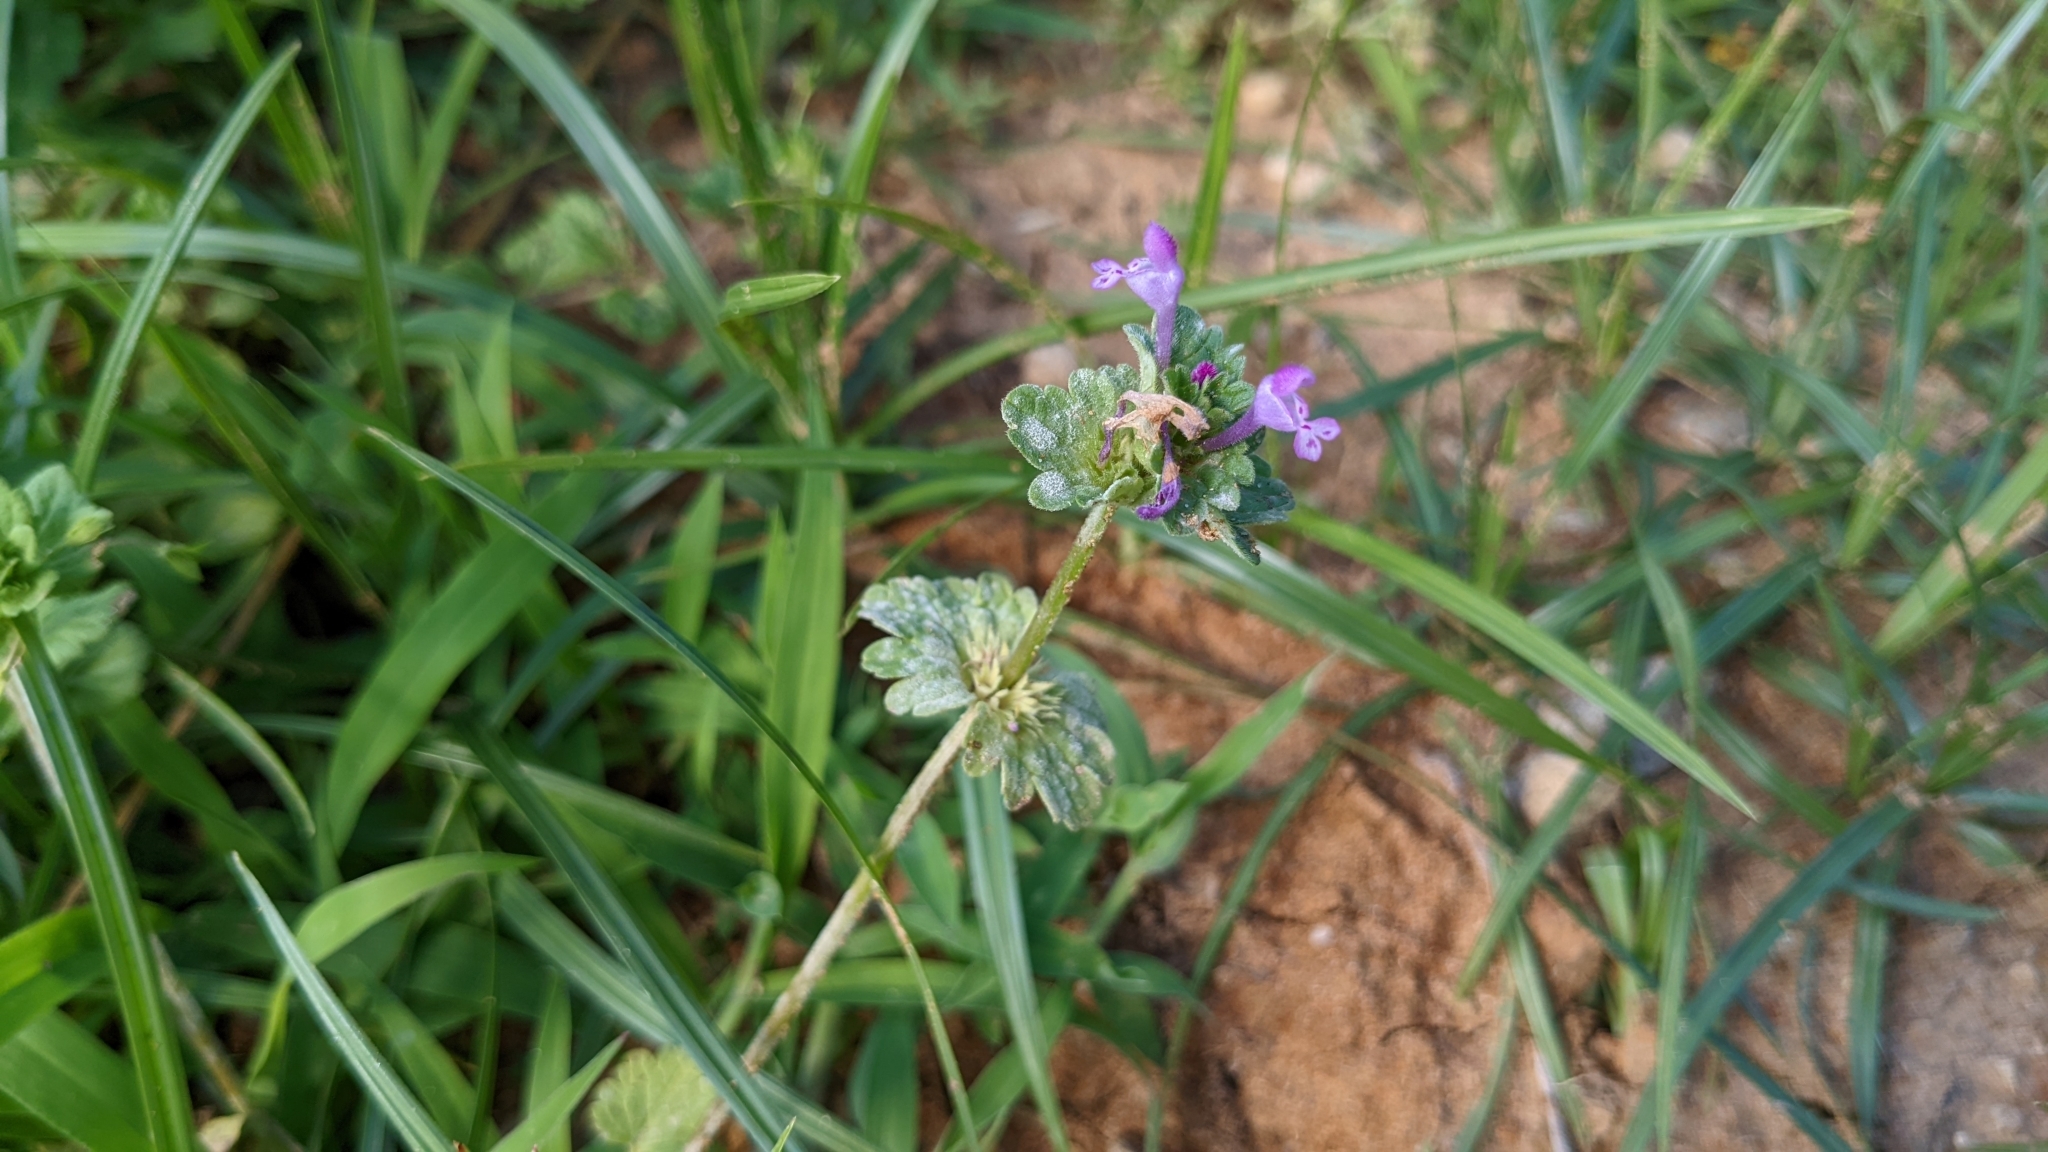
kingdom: Plantae
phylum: Tracheophyta
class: Magnoliopsida
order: Lamiales
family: Lamiaceae
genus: Lamium
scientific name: Lamium amplexicaule
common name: Henbit dead-nettle
